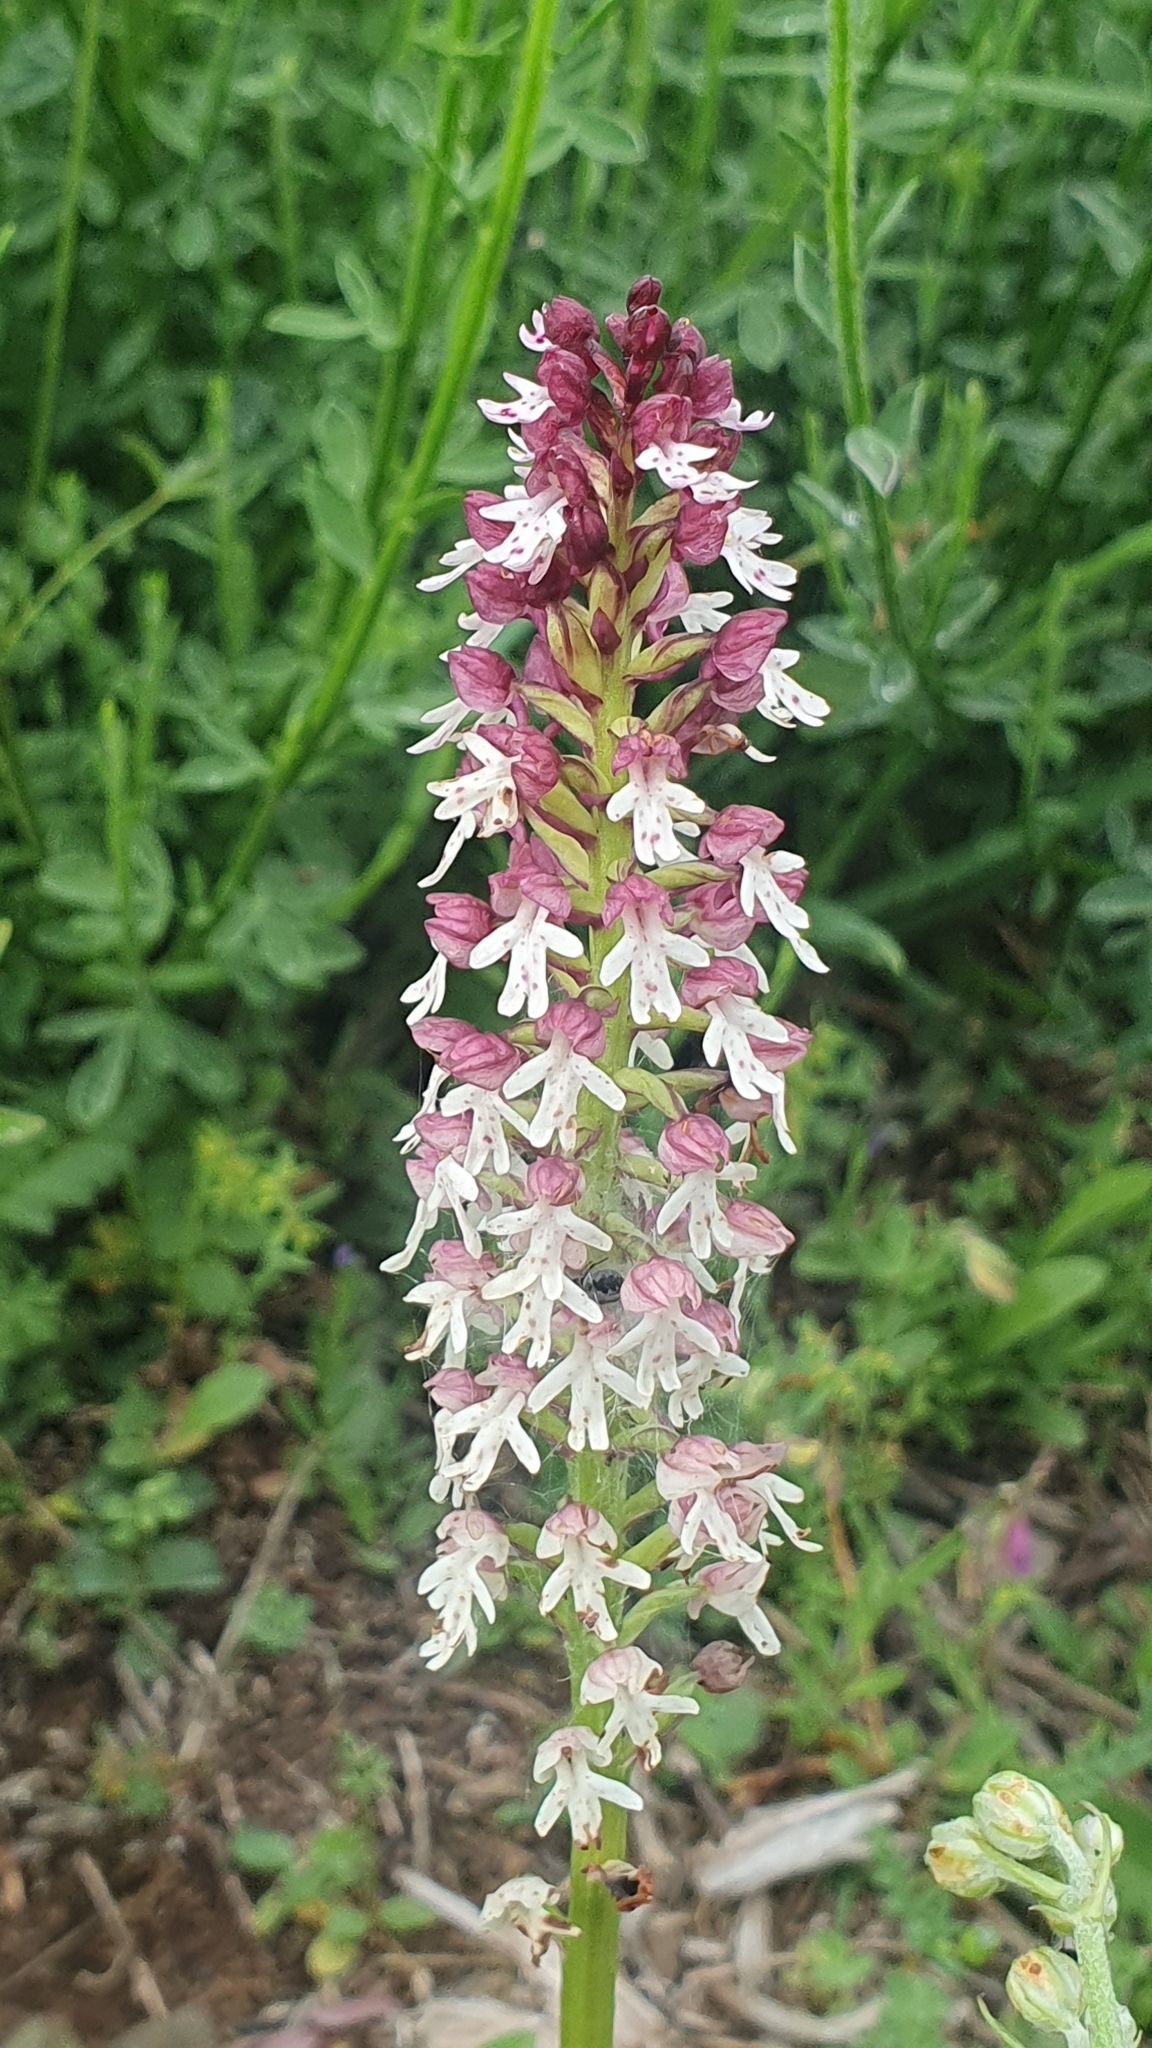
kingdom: Plantae
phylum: Tracheophyta
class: Liliopsida
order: Asparagales
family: Orchidaceae
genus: Neotinea
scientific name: Neotinea ustulata
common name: Burnt orchid
